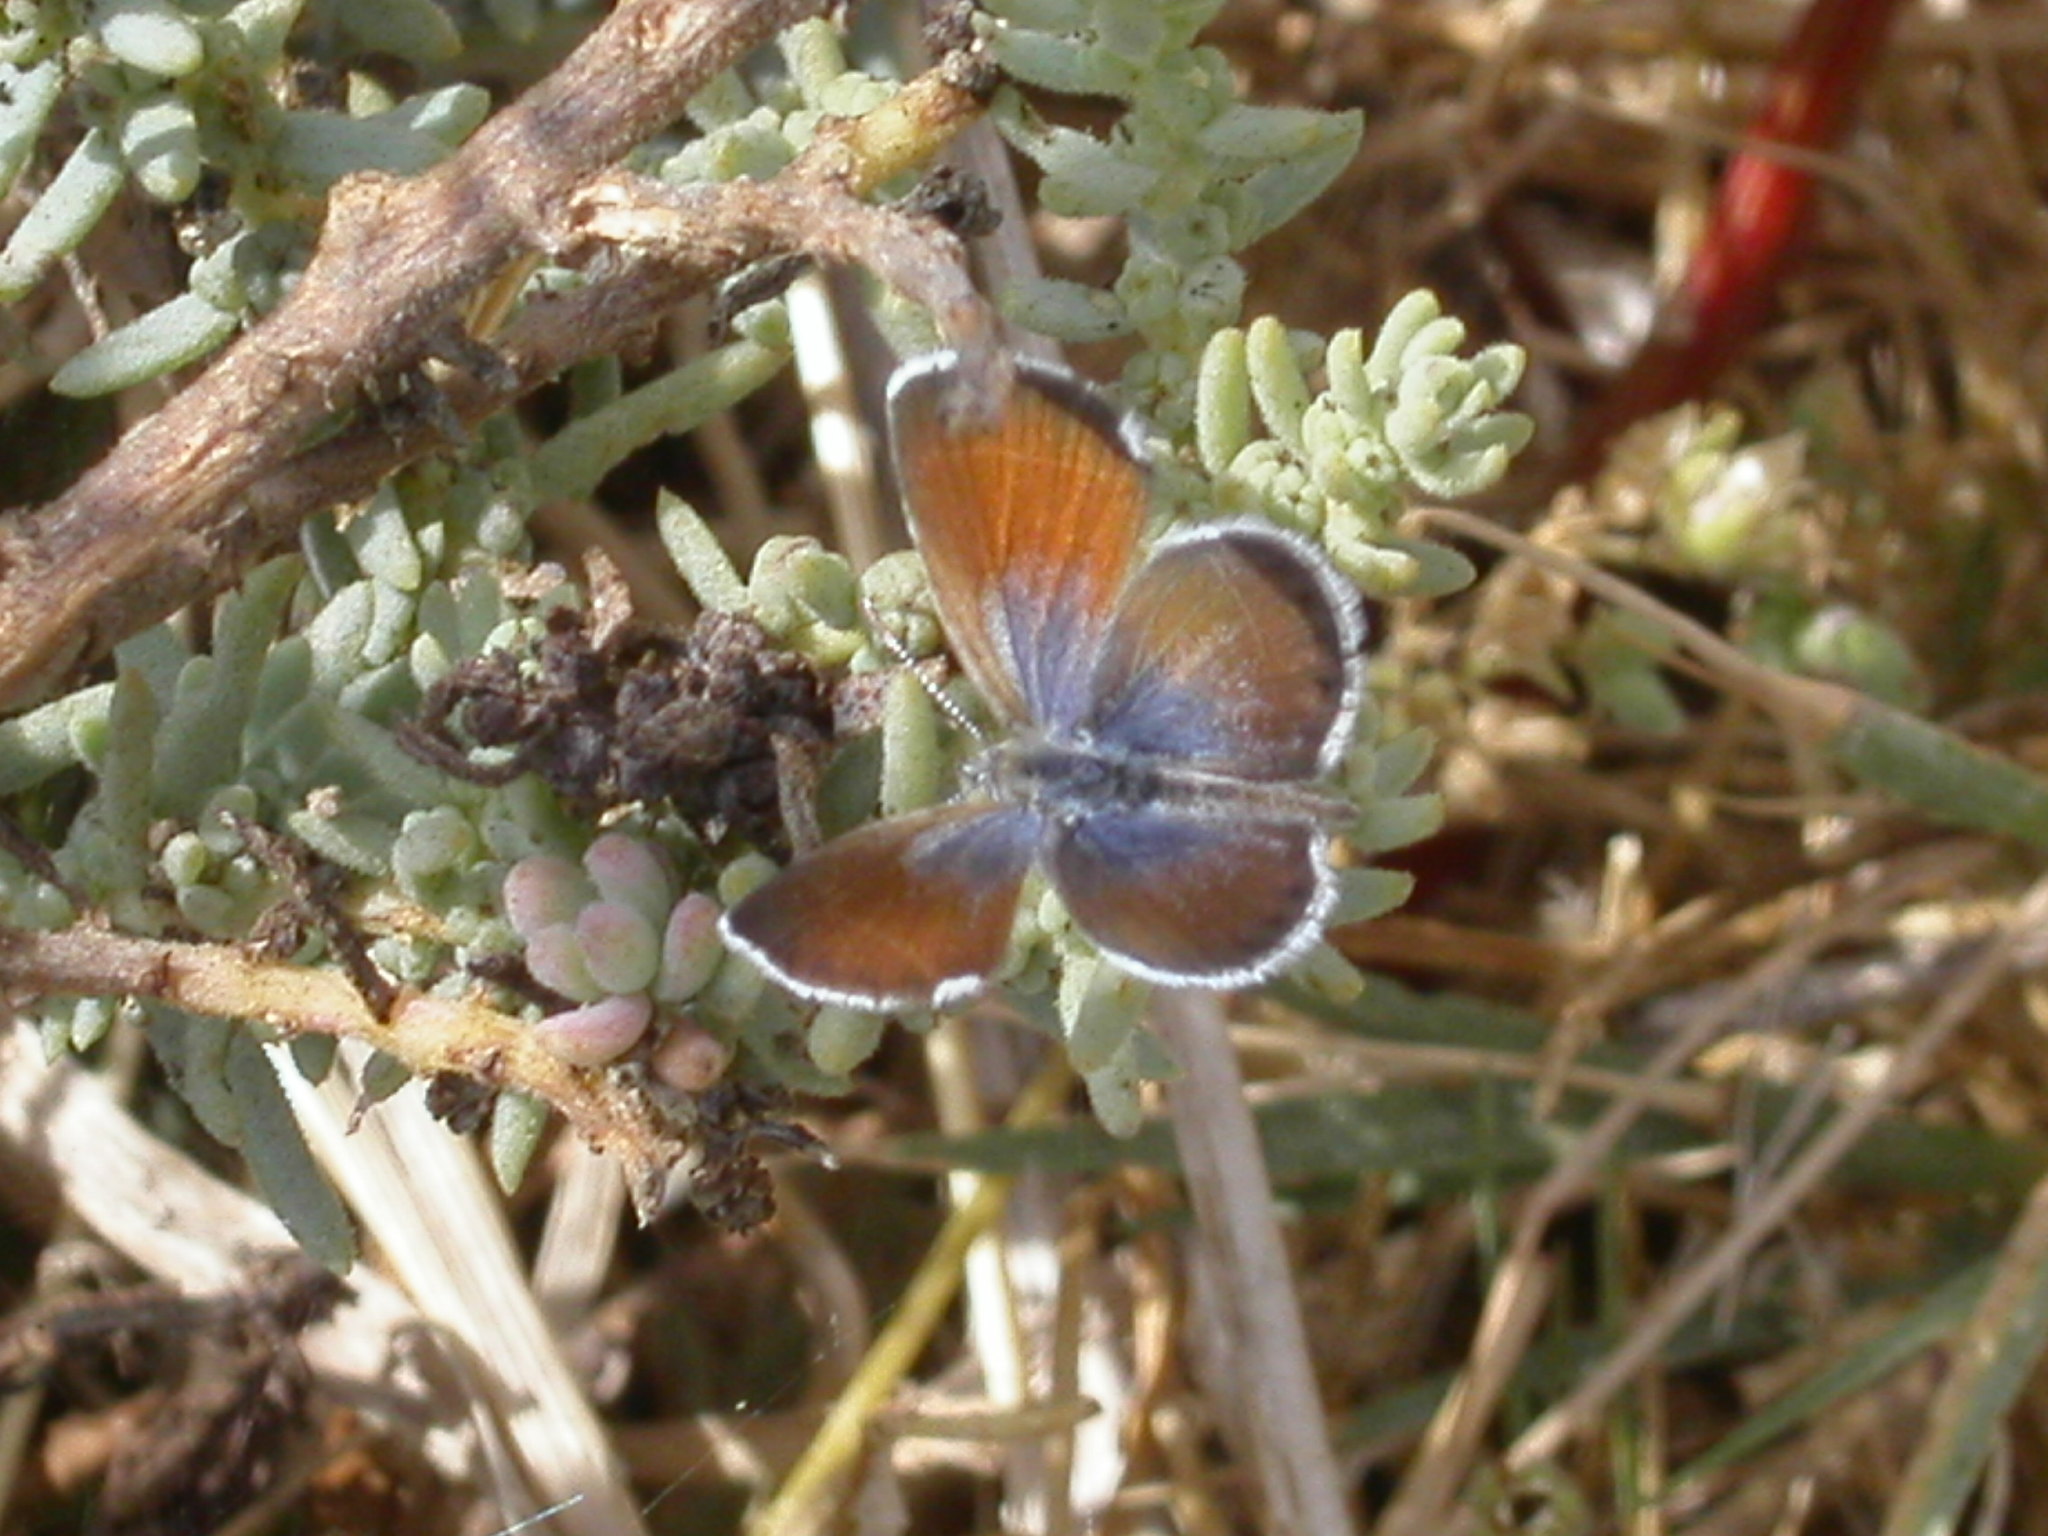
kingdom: Animalia
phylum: Arthropoda
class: Insecta
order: Lepidoptera
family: Lycaenidae
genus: Brephidium
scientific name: Brephidium exilis
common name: Pygmy blue
